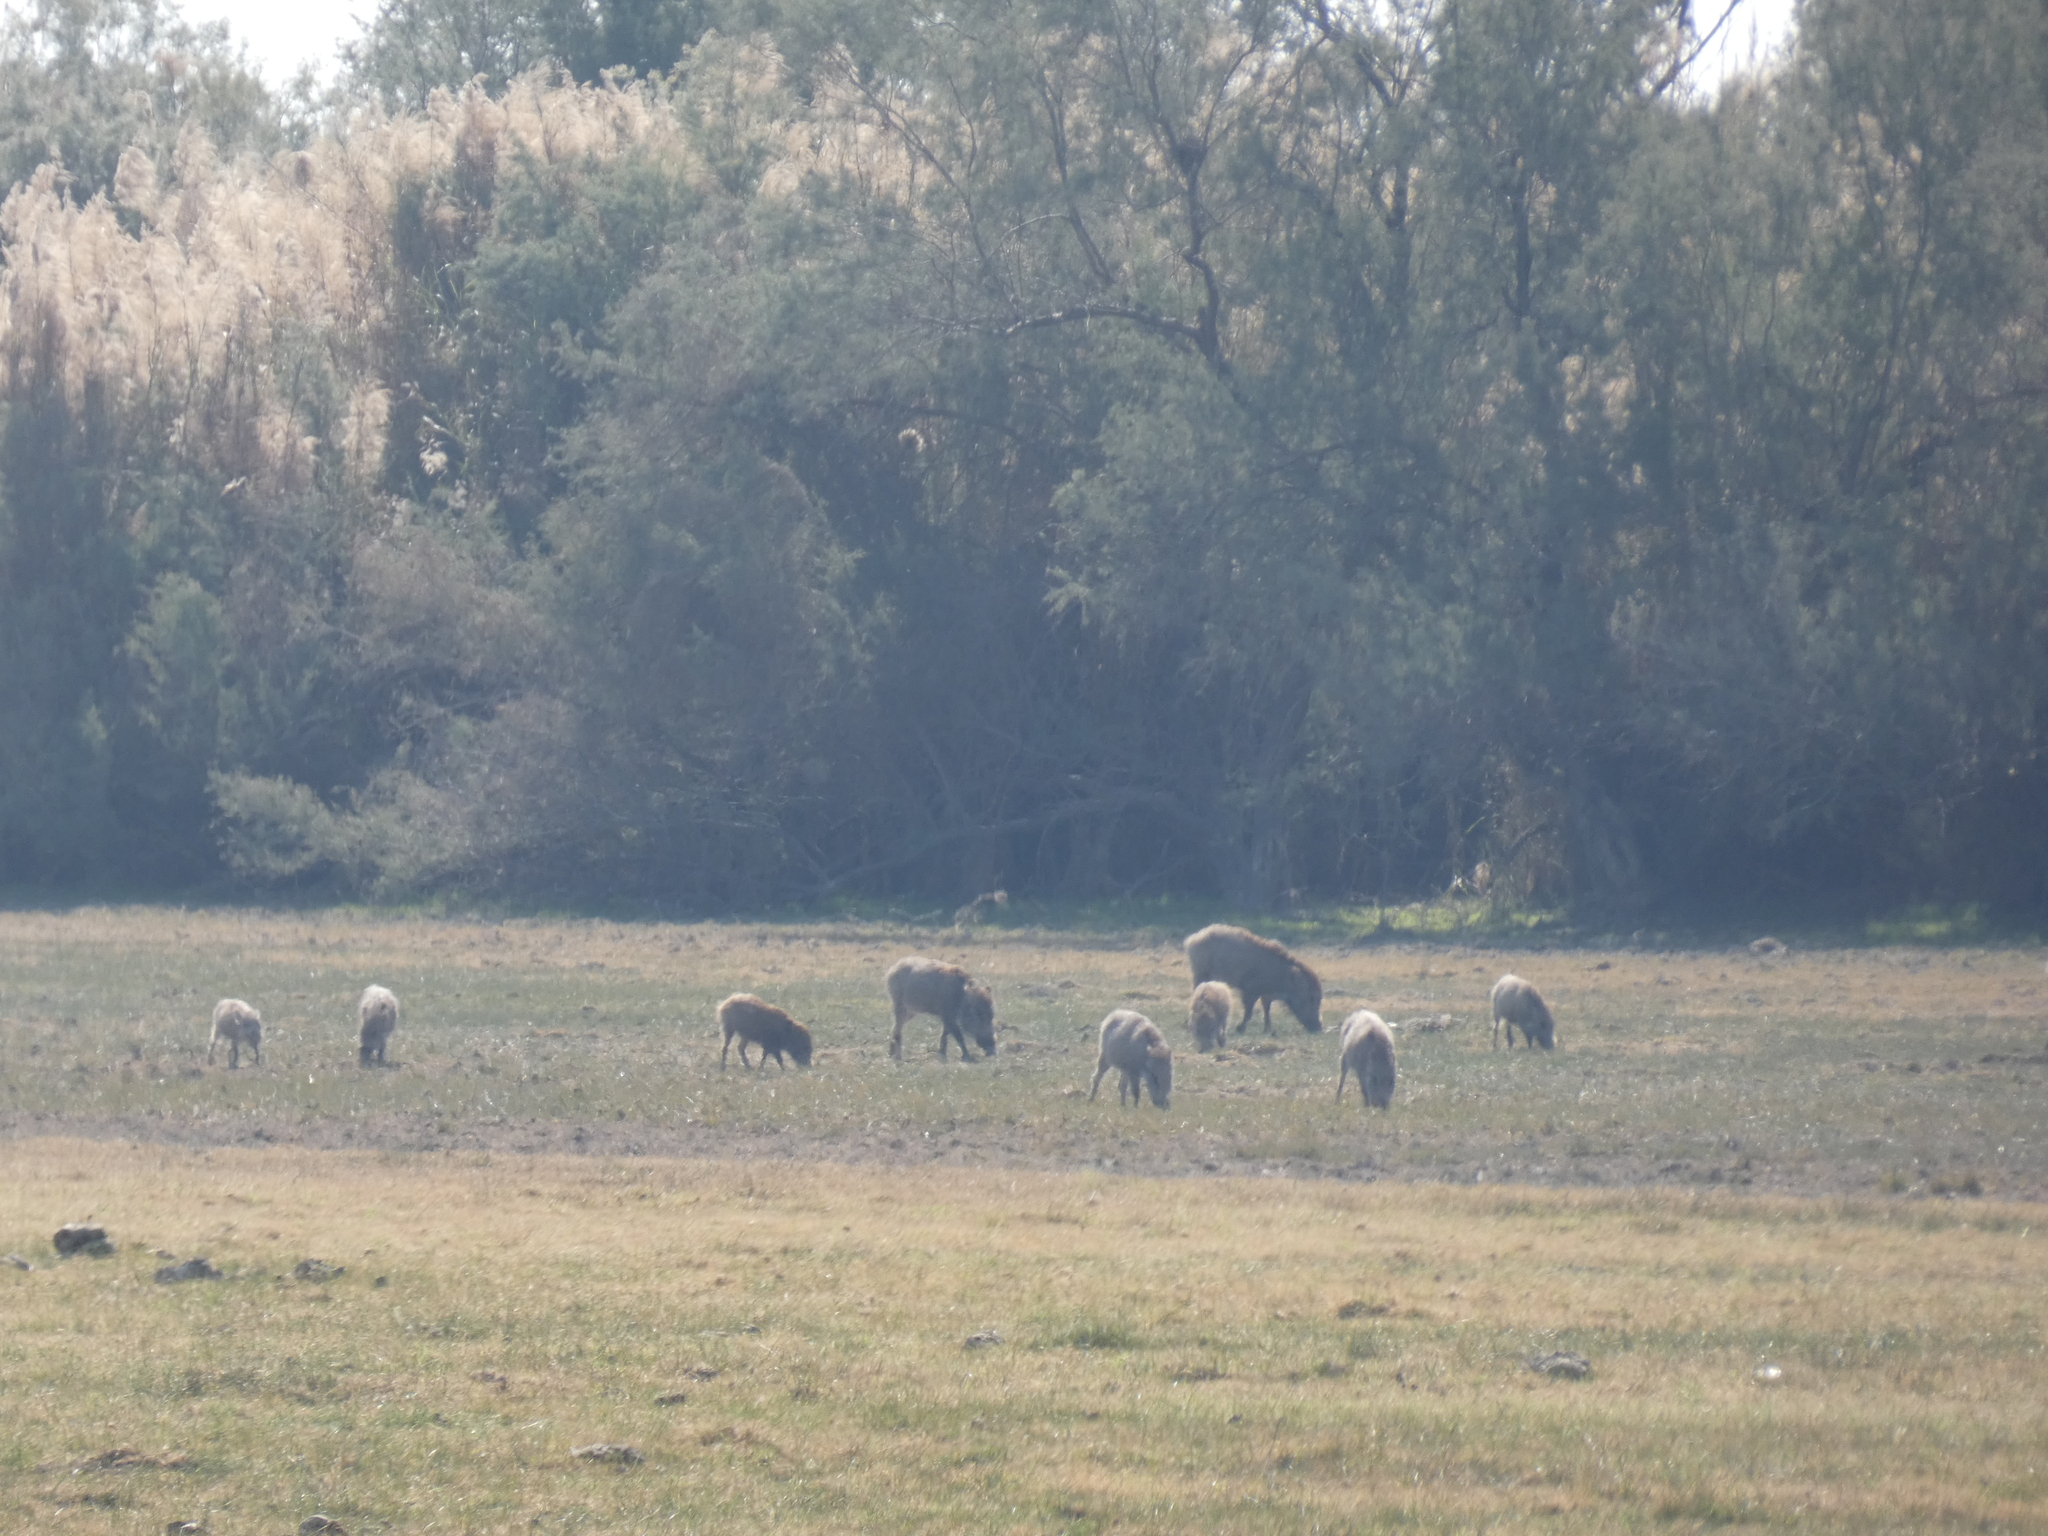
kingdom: Animalia
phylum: Chordata
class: Mammalia
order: Artiodactyla
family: Suidae
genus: Sus
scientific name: Sus scrofa
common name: Wild boar
